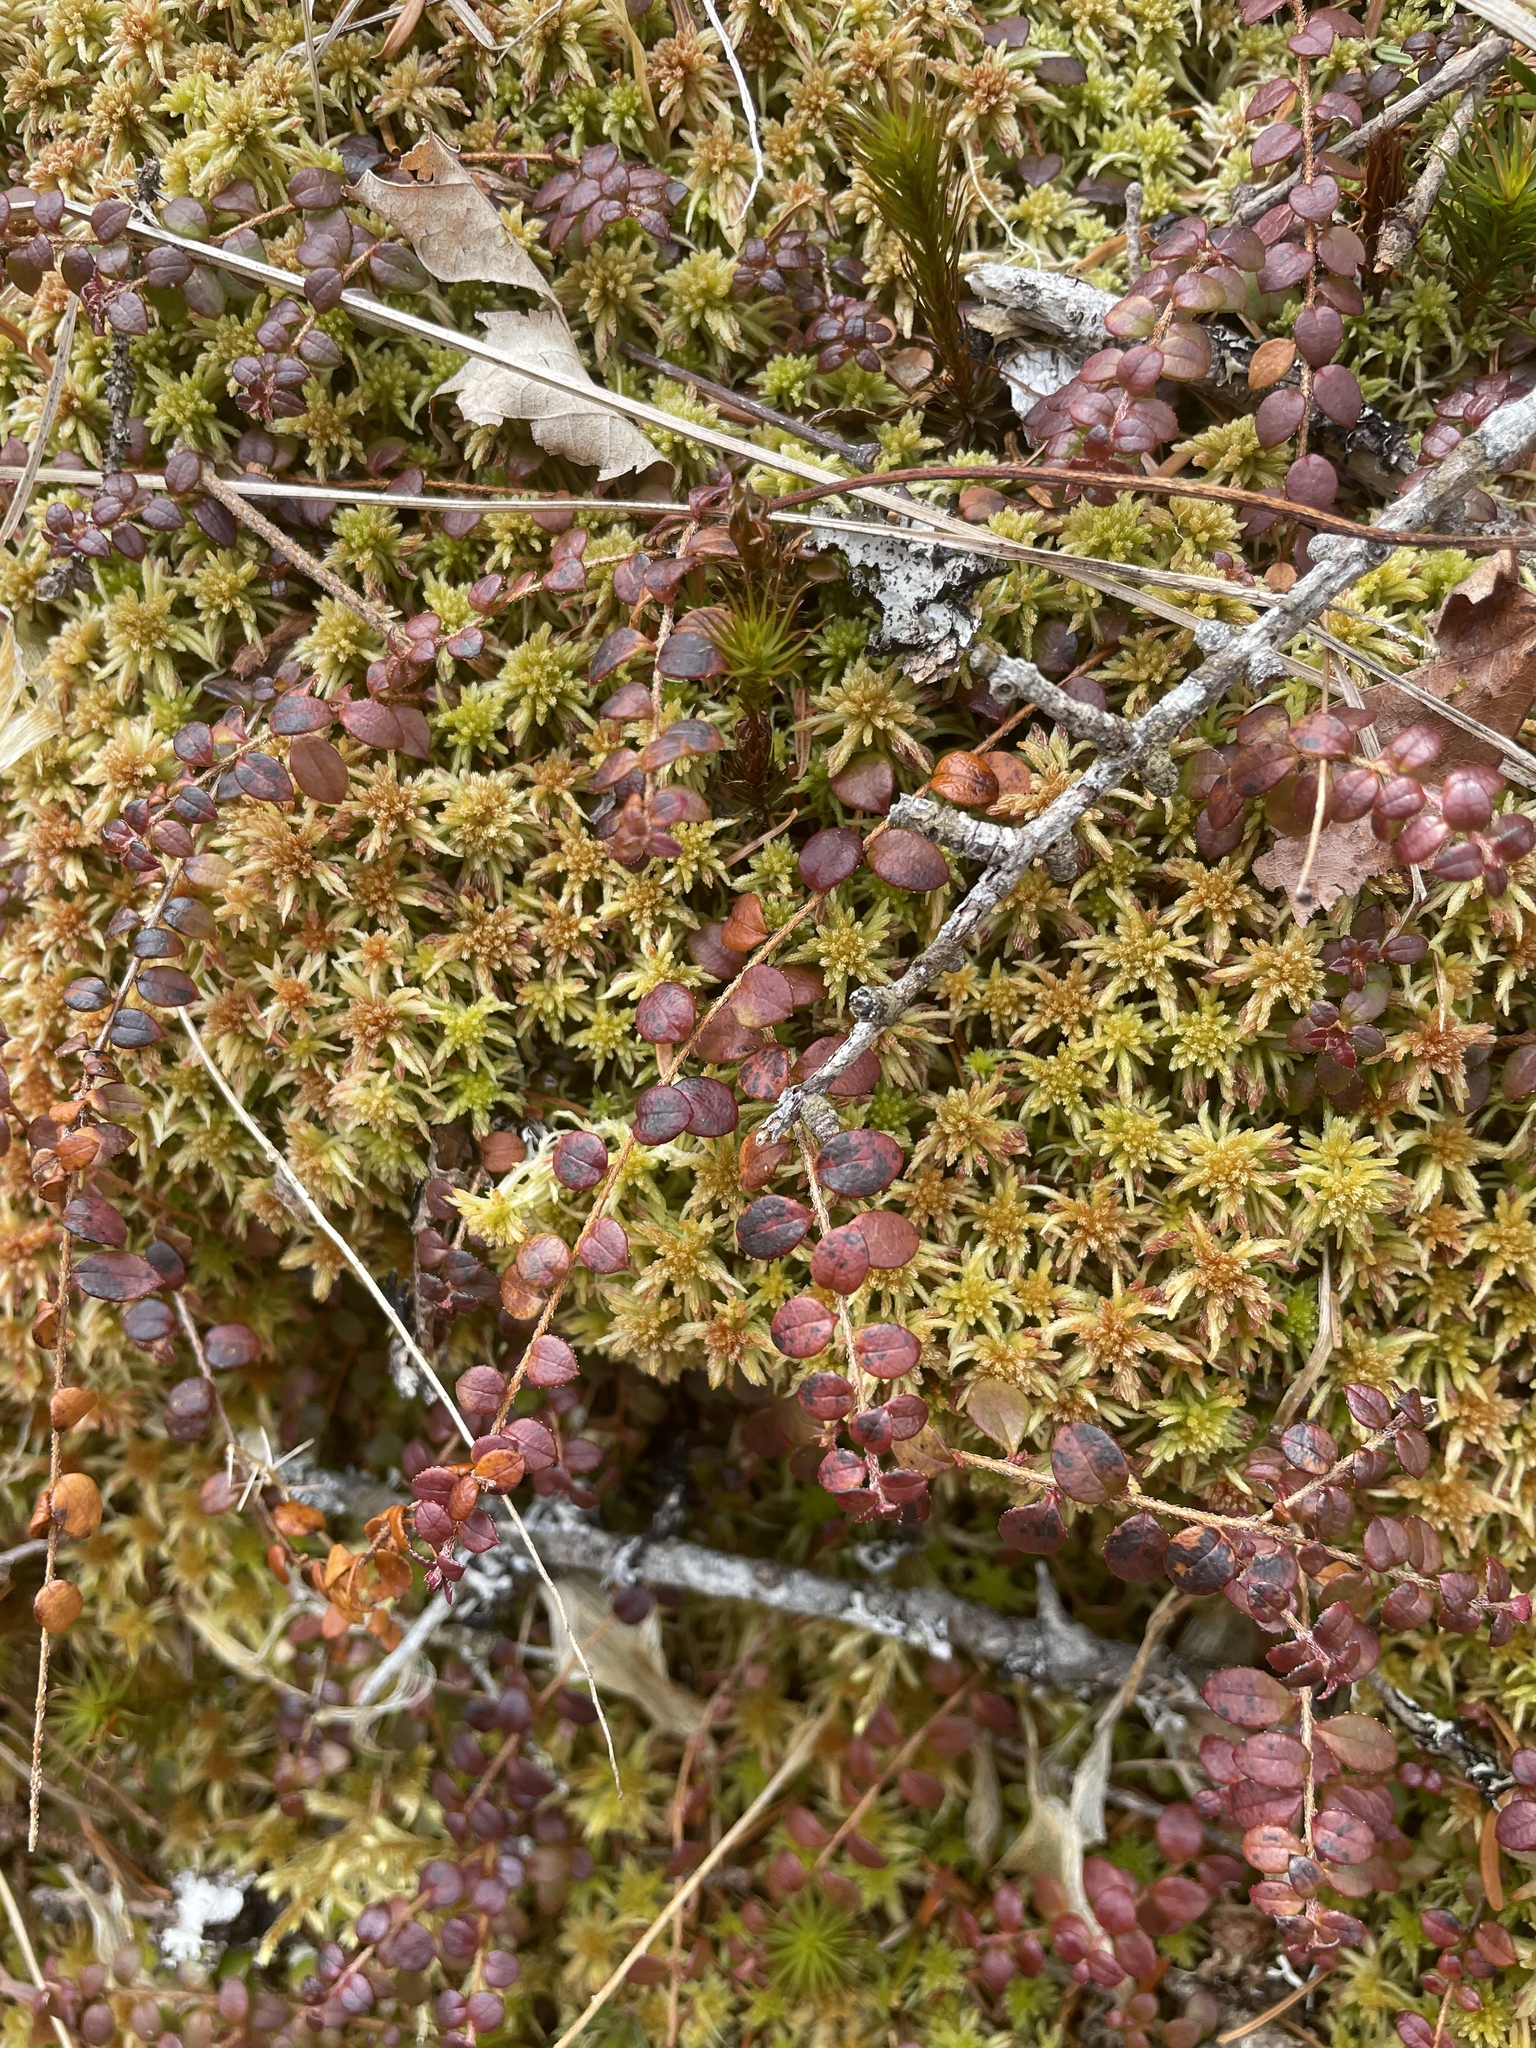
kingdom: Plantae
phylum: Tracheophyta
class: Magnoliopsida
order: Ericales
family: Ericaceae
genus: Gaultheria
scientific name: Gaultheria hispidula
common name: Cancer wintergreen
